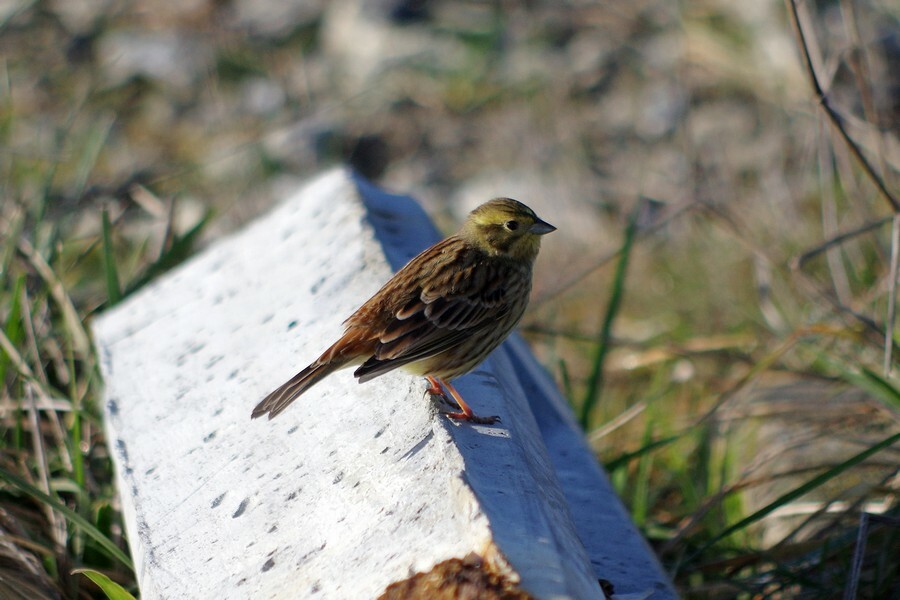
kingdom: Animalia
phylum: Chordata
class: Aves
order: Passeriformes
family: Emberizidae
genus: Emberiza
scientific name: Emberiza citrinella
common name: Yellowhammer
